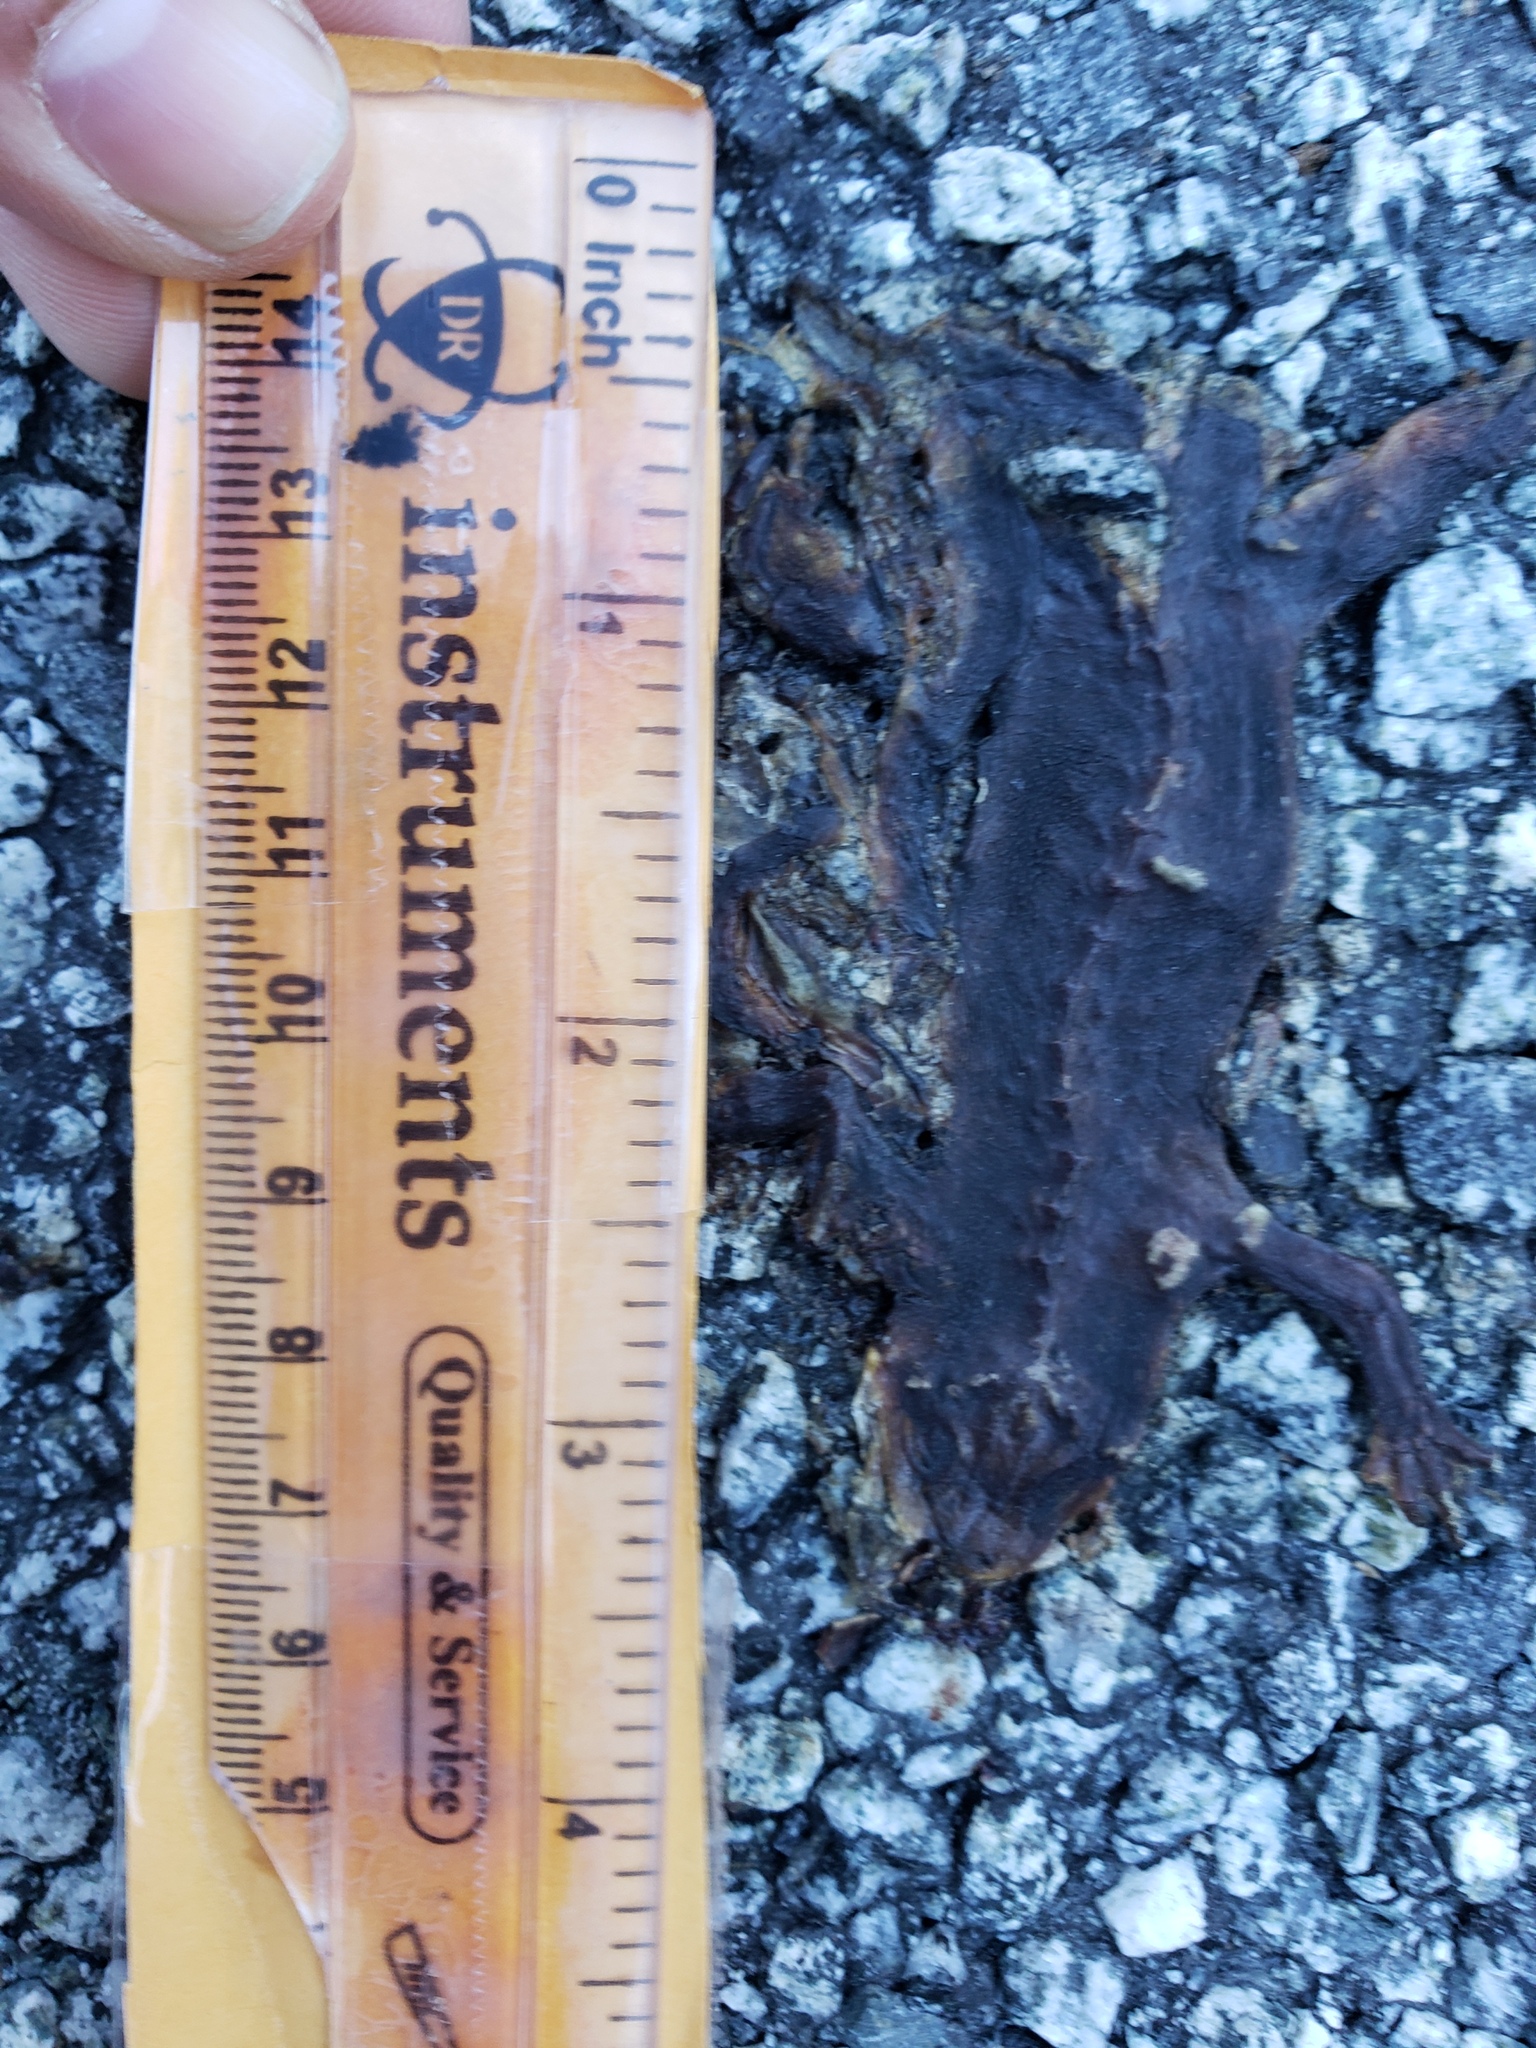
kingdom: Animalia
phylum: Chordata
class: Amphibia
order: Caudata
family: Salamandridae
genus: Taricha
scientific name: Taricha
